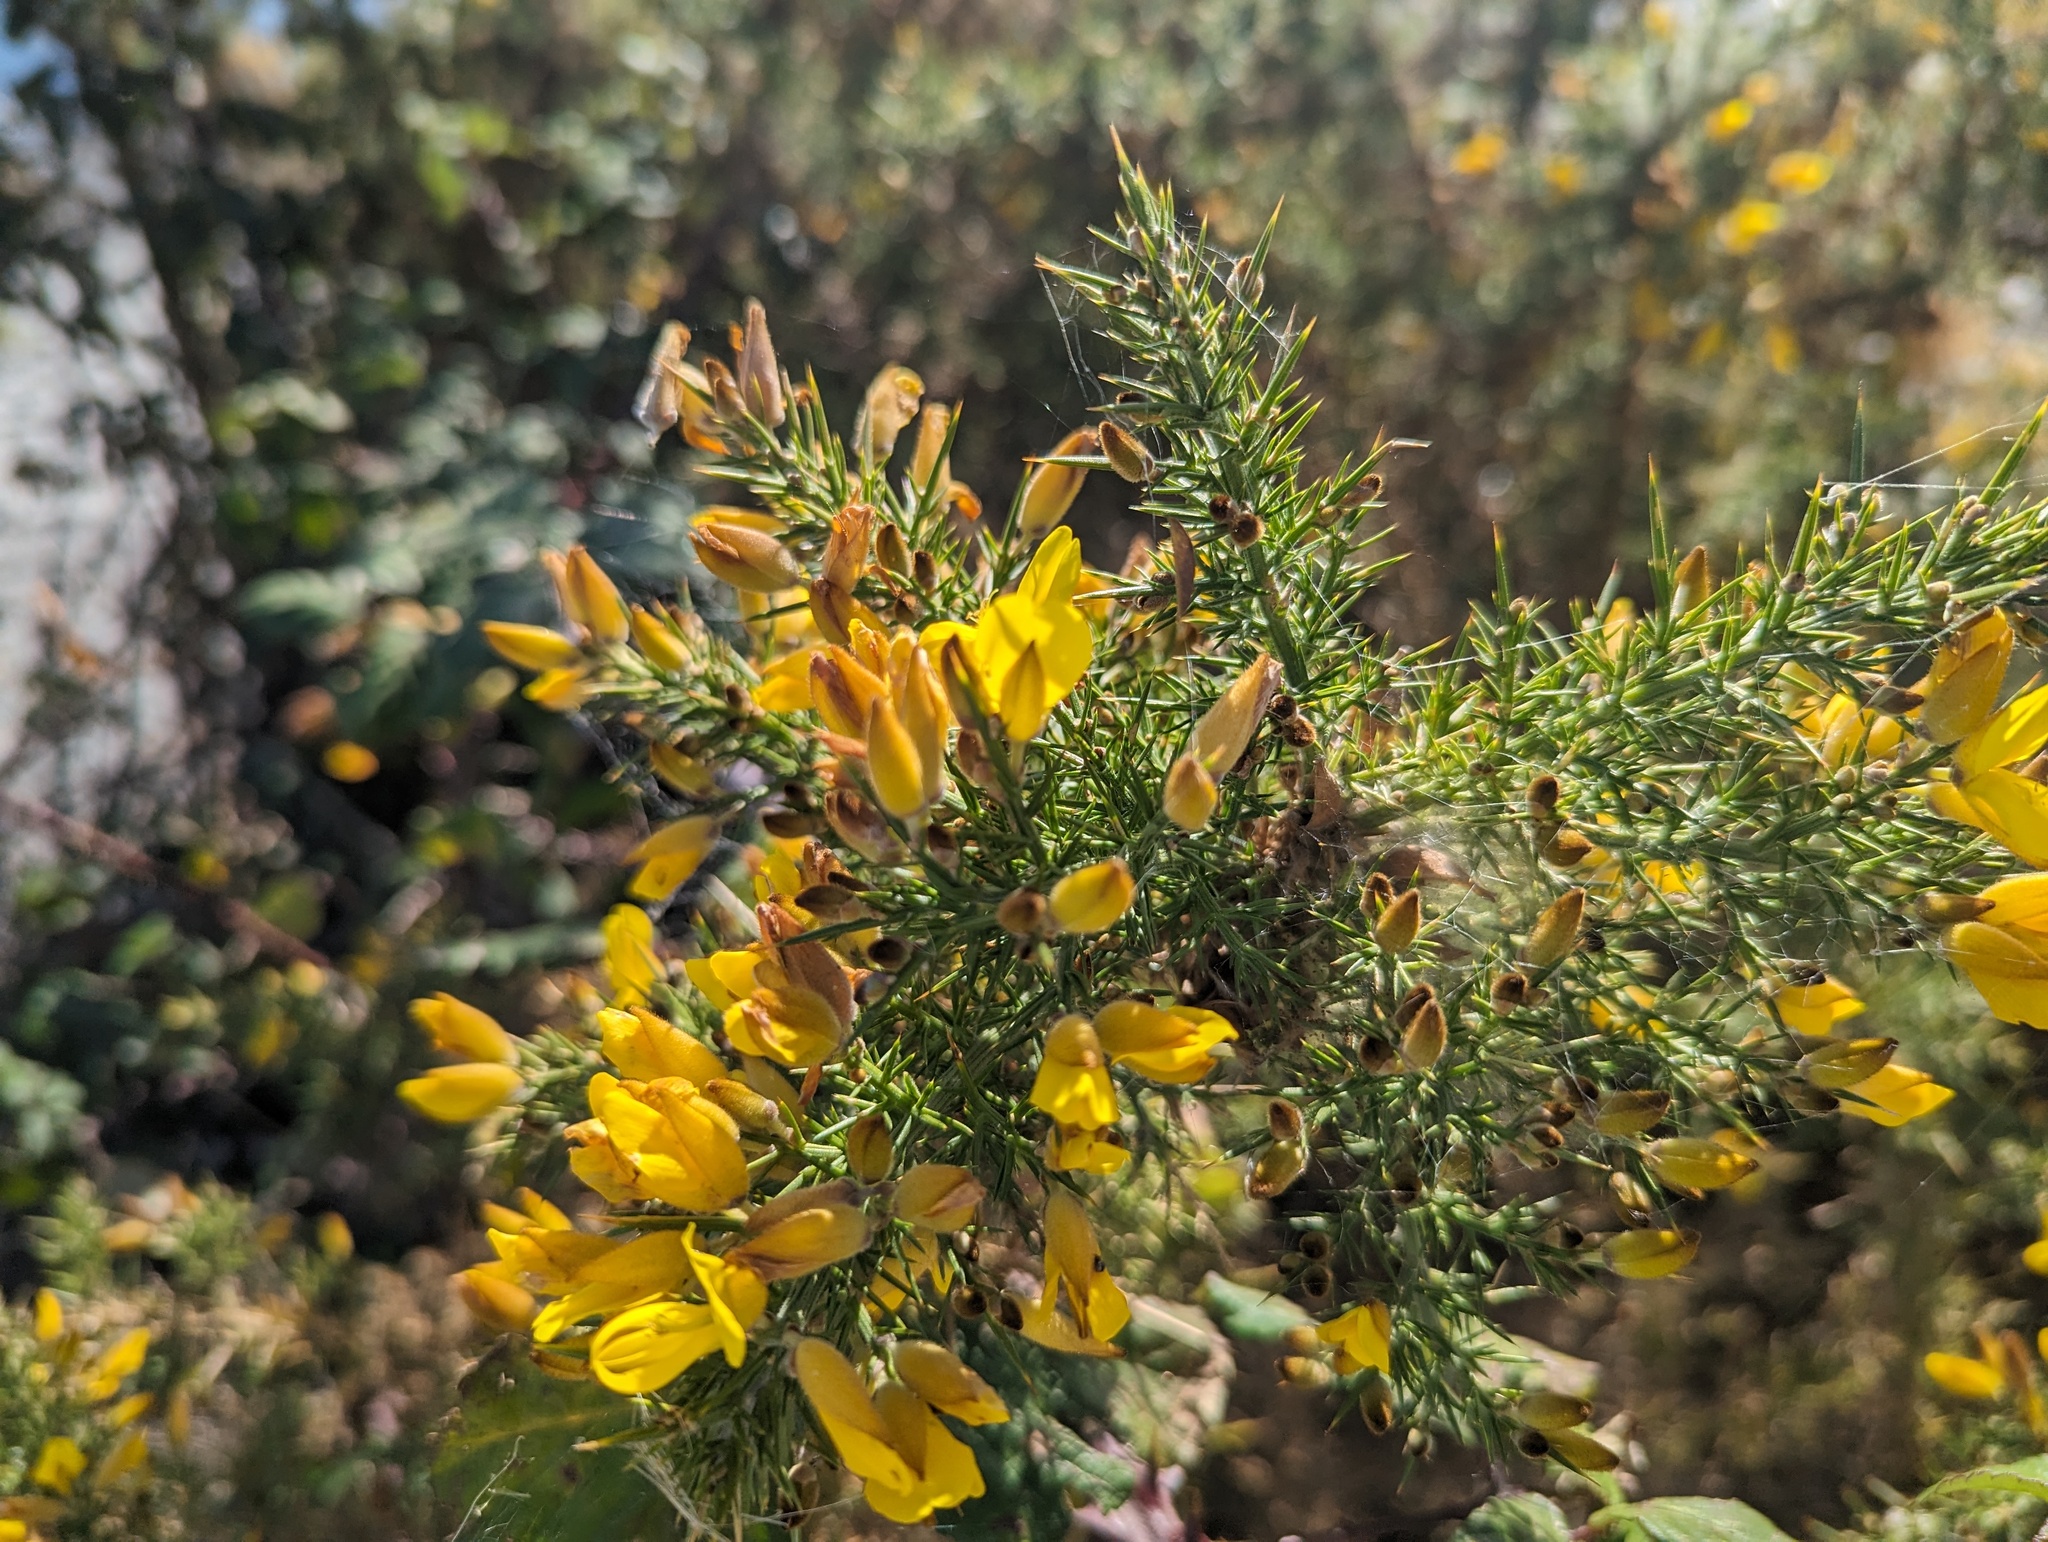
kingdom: Plantae
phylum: Tracheophyta
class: Magnoliopsida
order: Fabales
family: Fabaceae
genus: Ulex
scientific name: Ulex europaeus
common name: Common gorse
